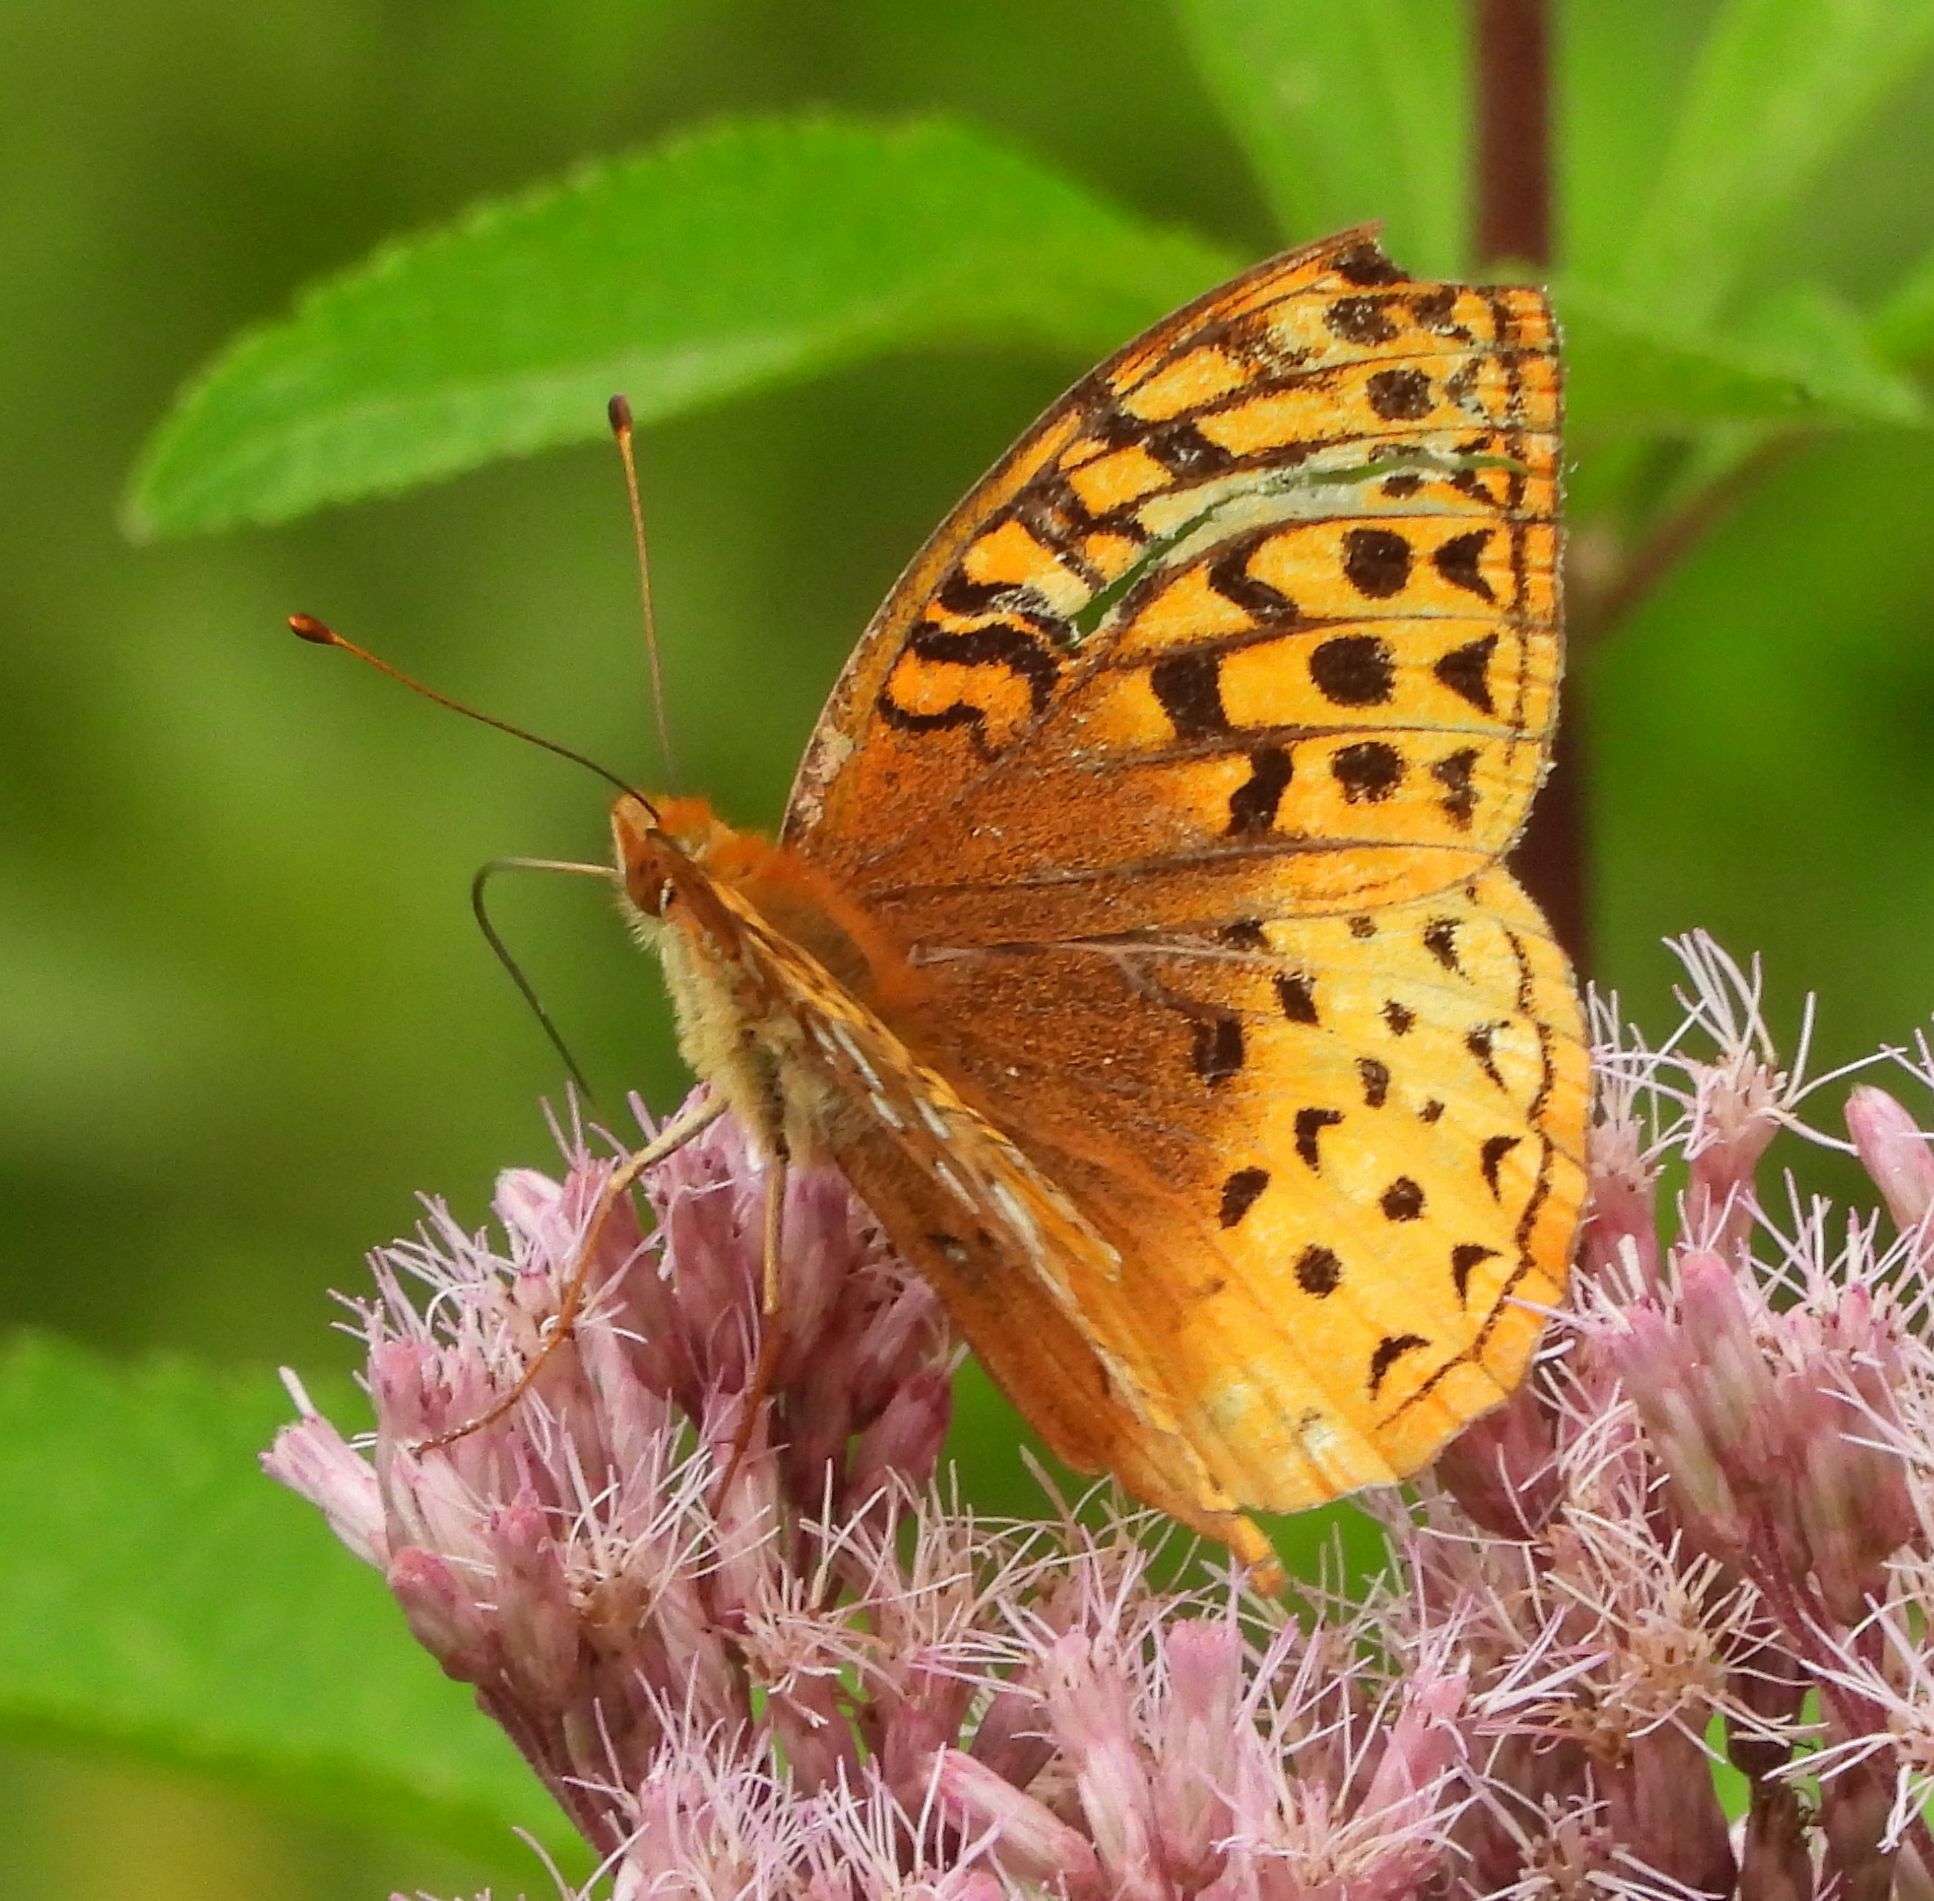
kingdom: Animalia
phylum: Arthropoda
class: Insecta
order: Lepidoptera
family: Nymphalidae
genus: Speyeria
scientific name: Speyeria cybele
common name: Great spangled fritillary
